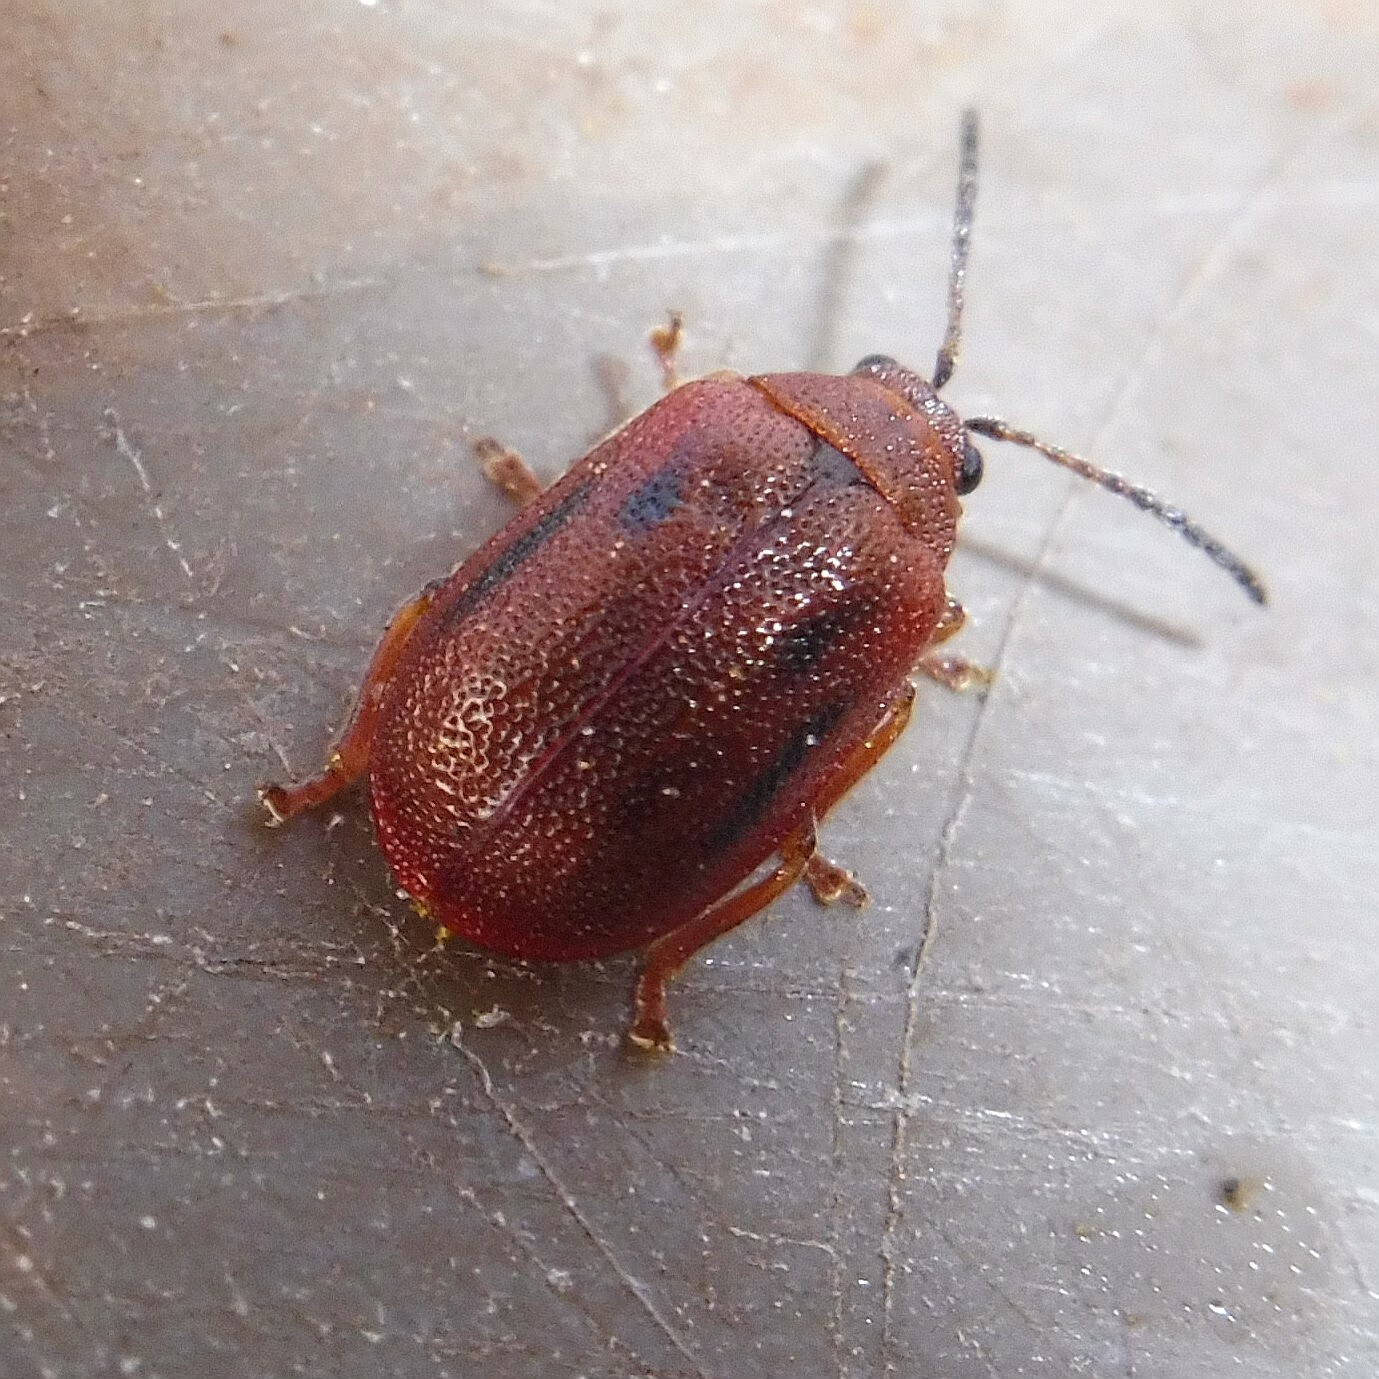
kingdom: Animalia
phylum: Arthropoda
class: Insecta
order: Coleoptera
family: Chrysomelidae
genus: Lochmaea
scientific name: Lochmaea crataegi
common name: Hawthorn leaf beetle
